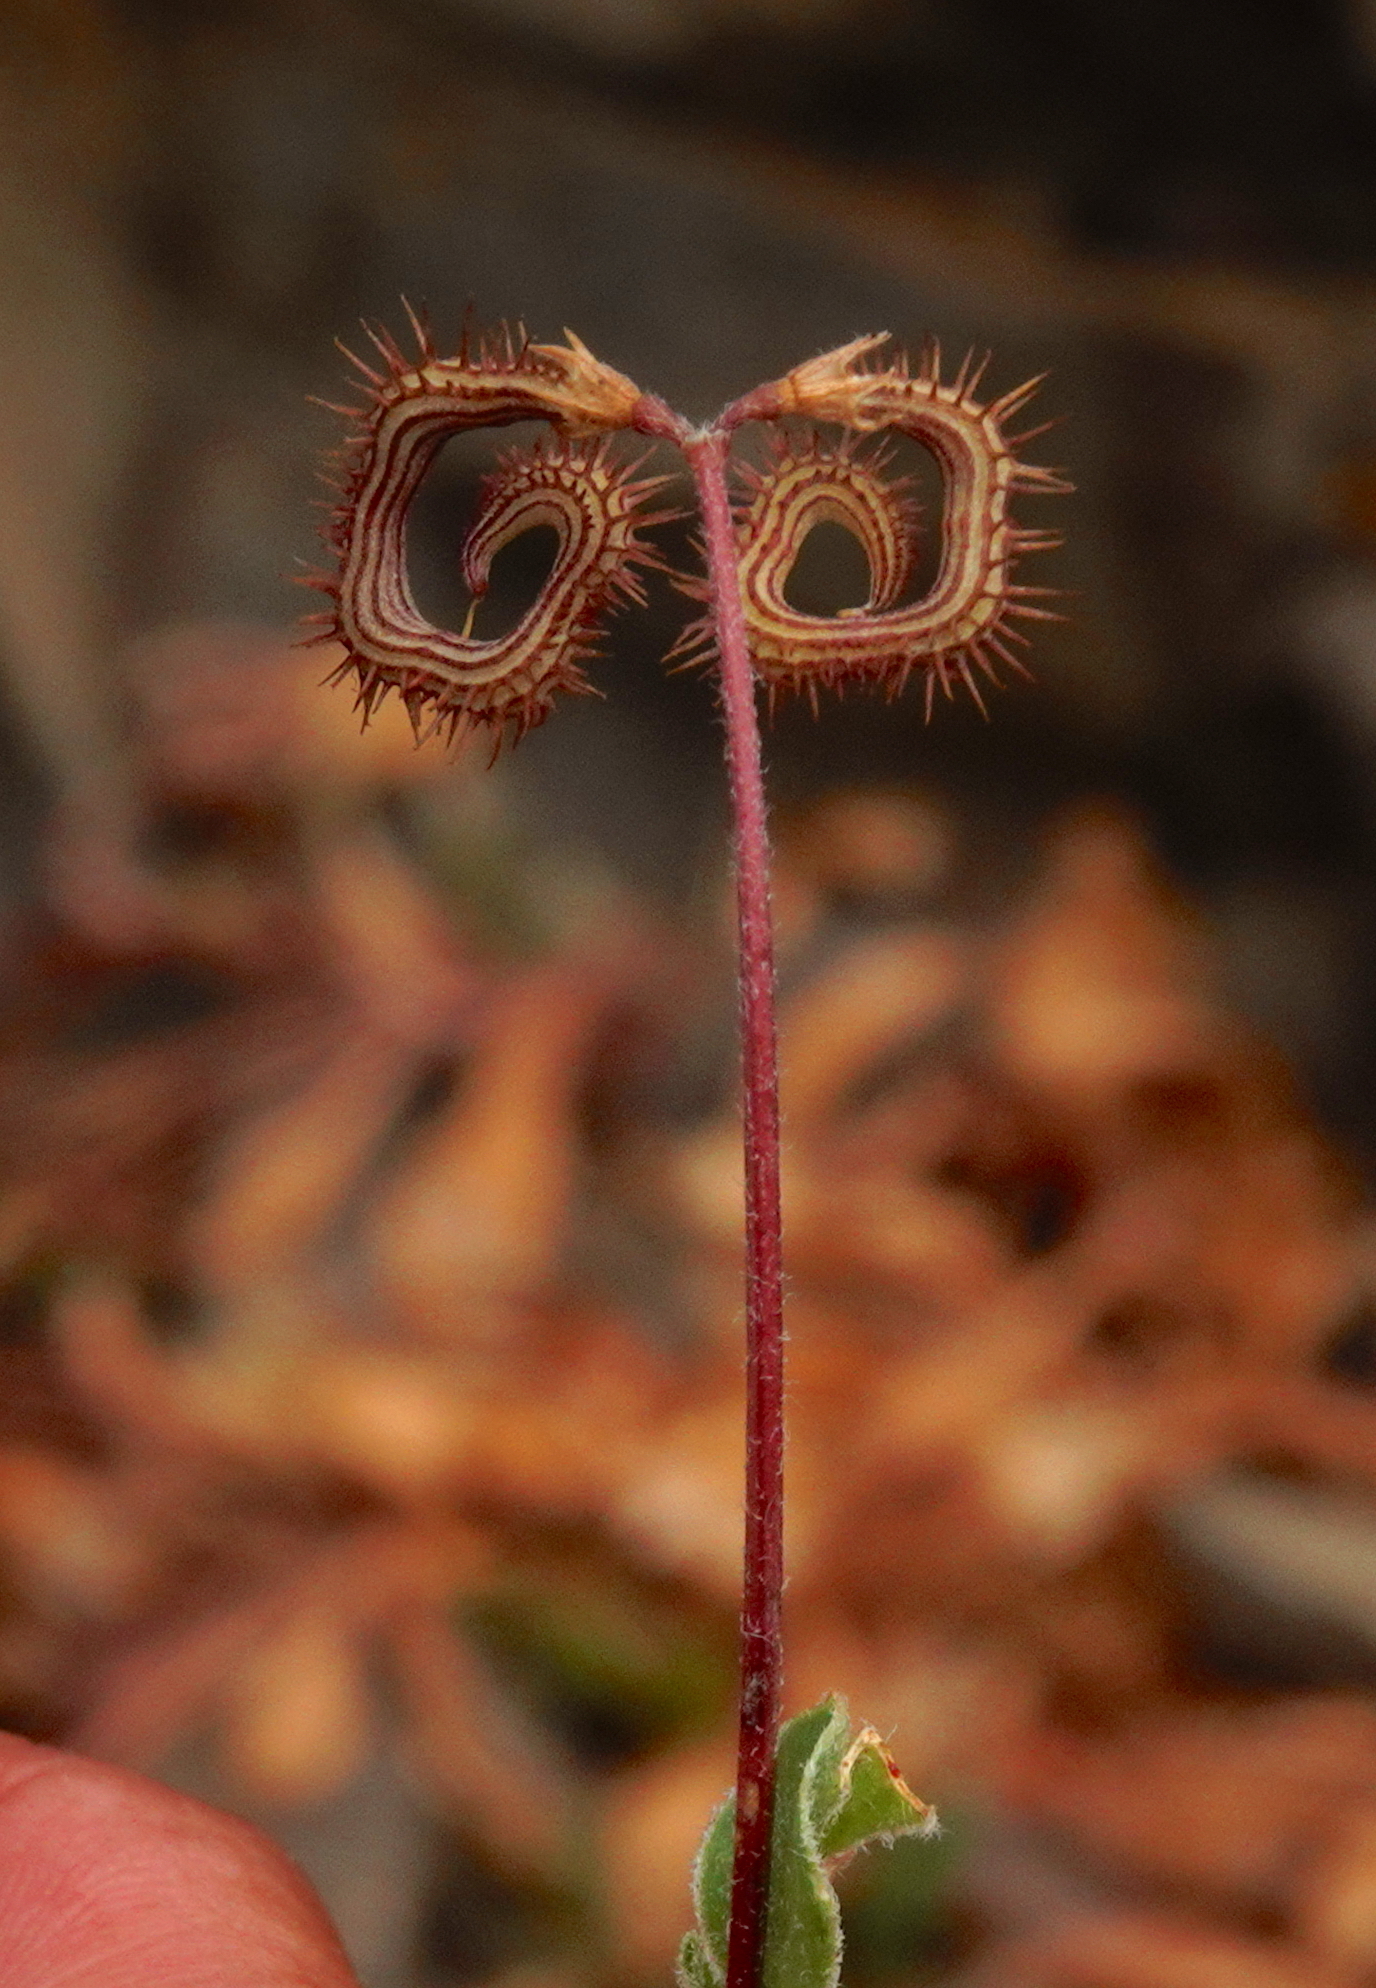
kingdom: Plantae
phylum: Tracheophyta
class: Magnoliopsida
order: Fabales
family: Fabaceae
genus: Scorpiurus
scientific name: Scorpiurus muricatus
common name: Caterpillar-plant
